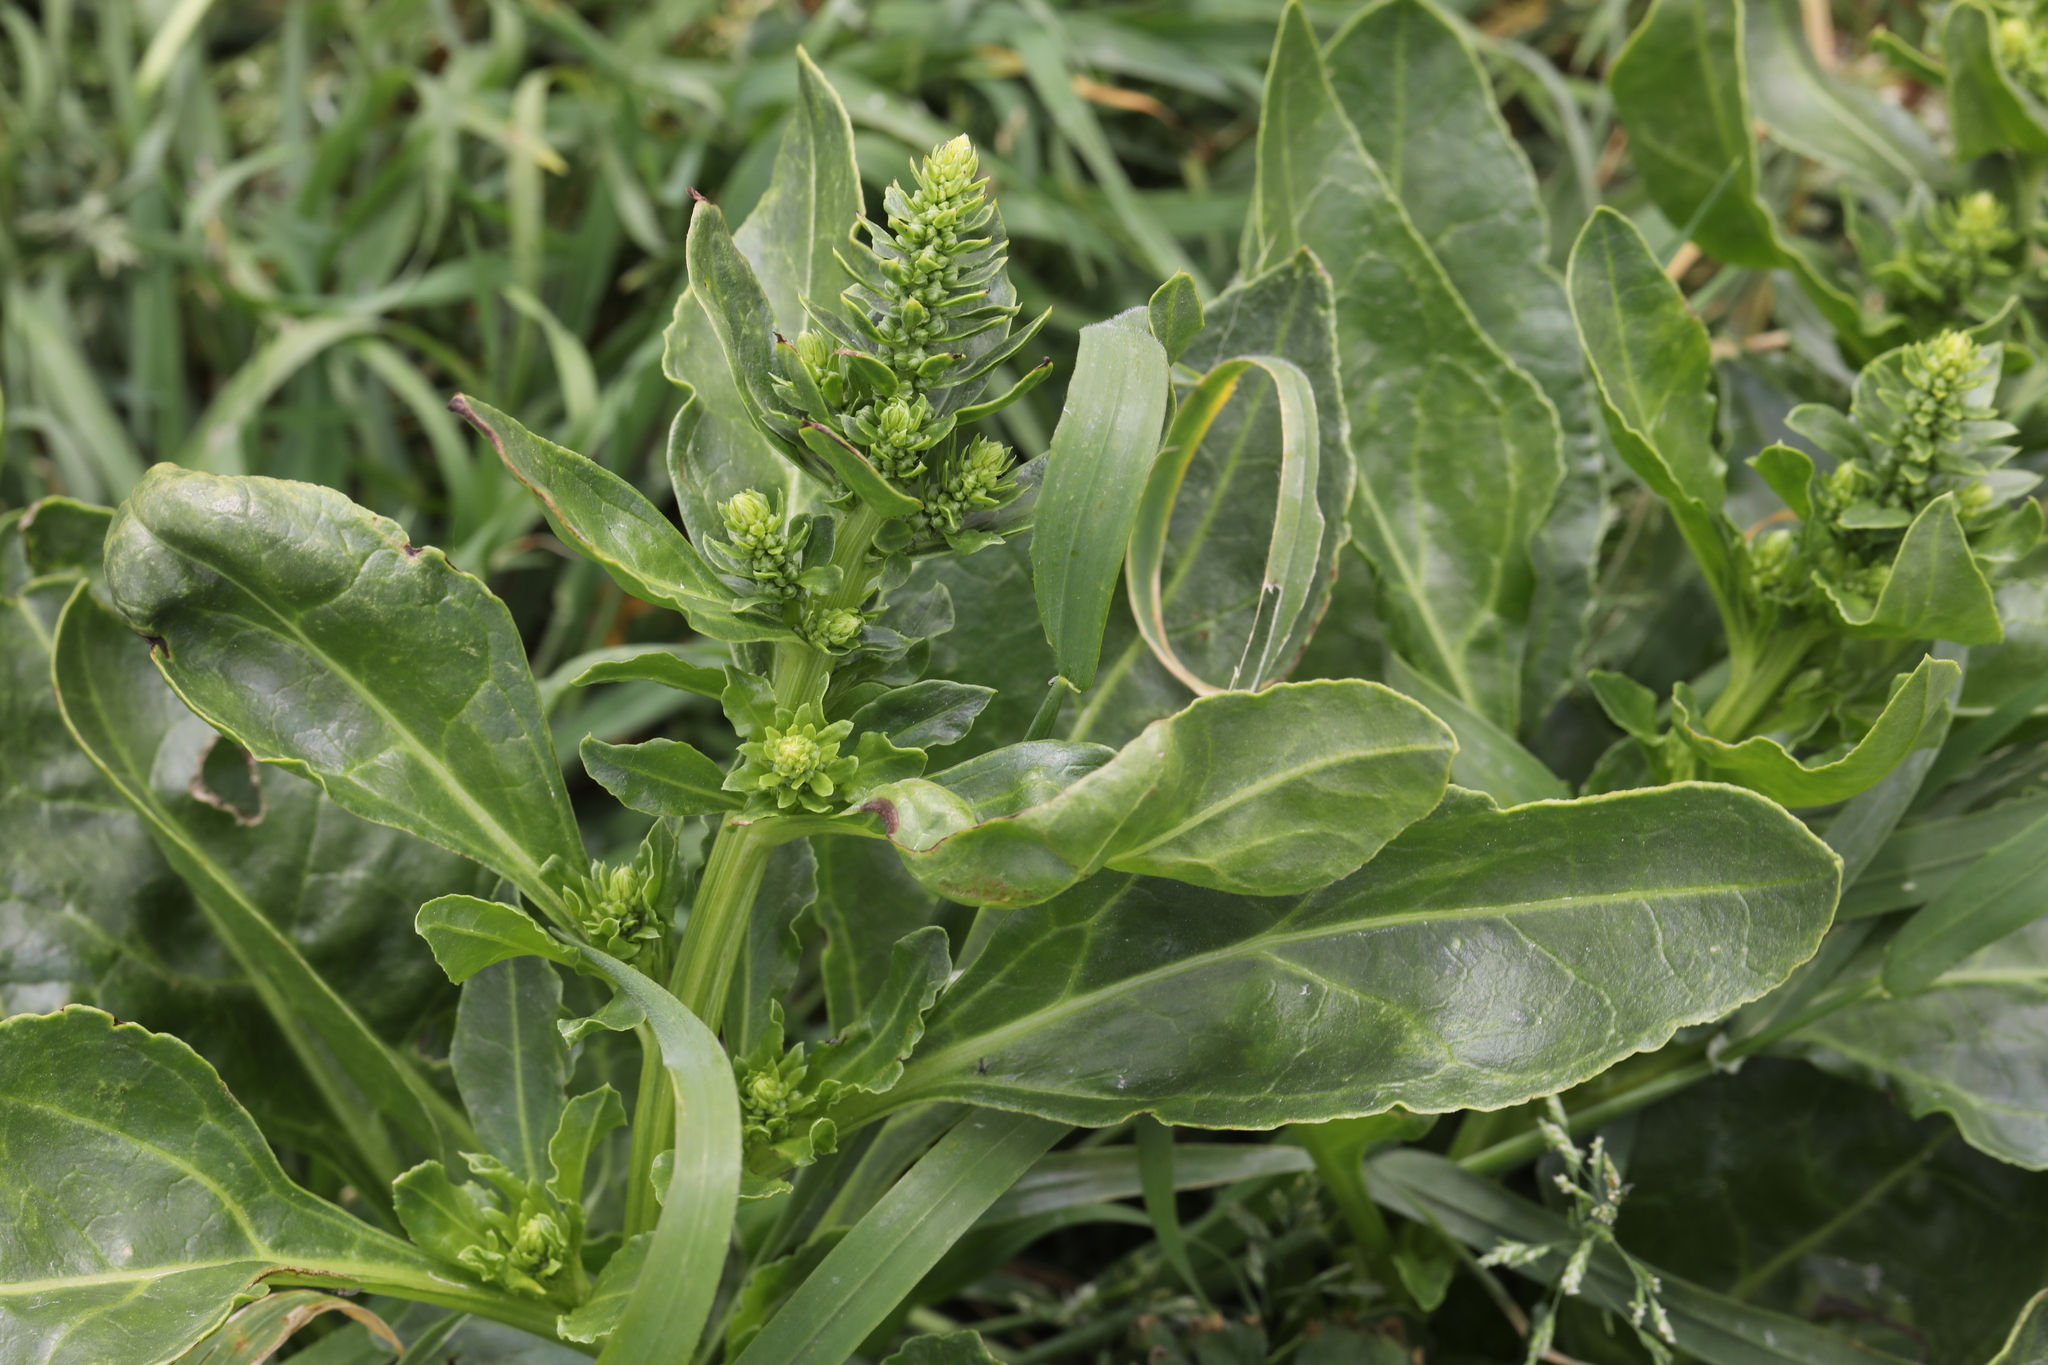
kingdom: Plantae
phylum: Tracheophyta
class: Magnoliopsida
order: Caryophyllales
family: Amaranthaceae
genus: Beta
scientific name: Beta vulgaris
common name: Beet
